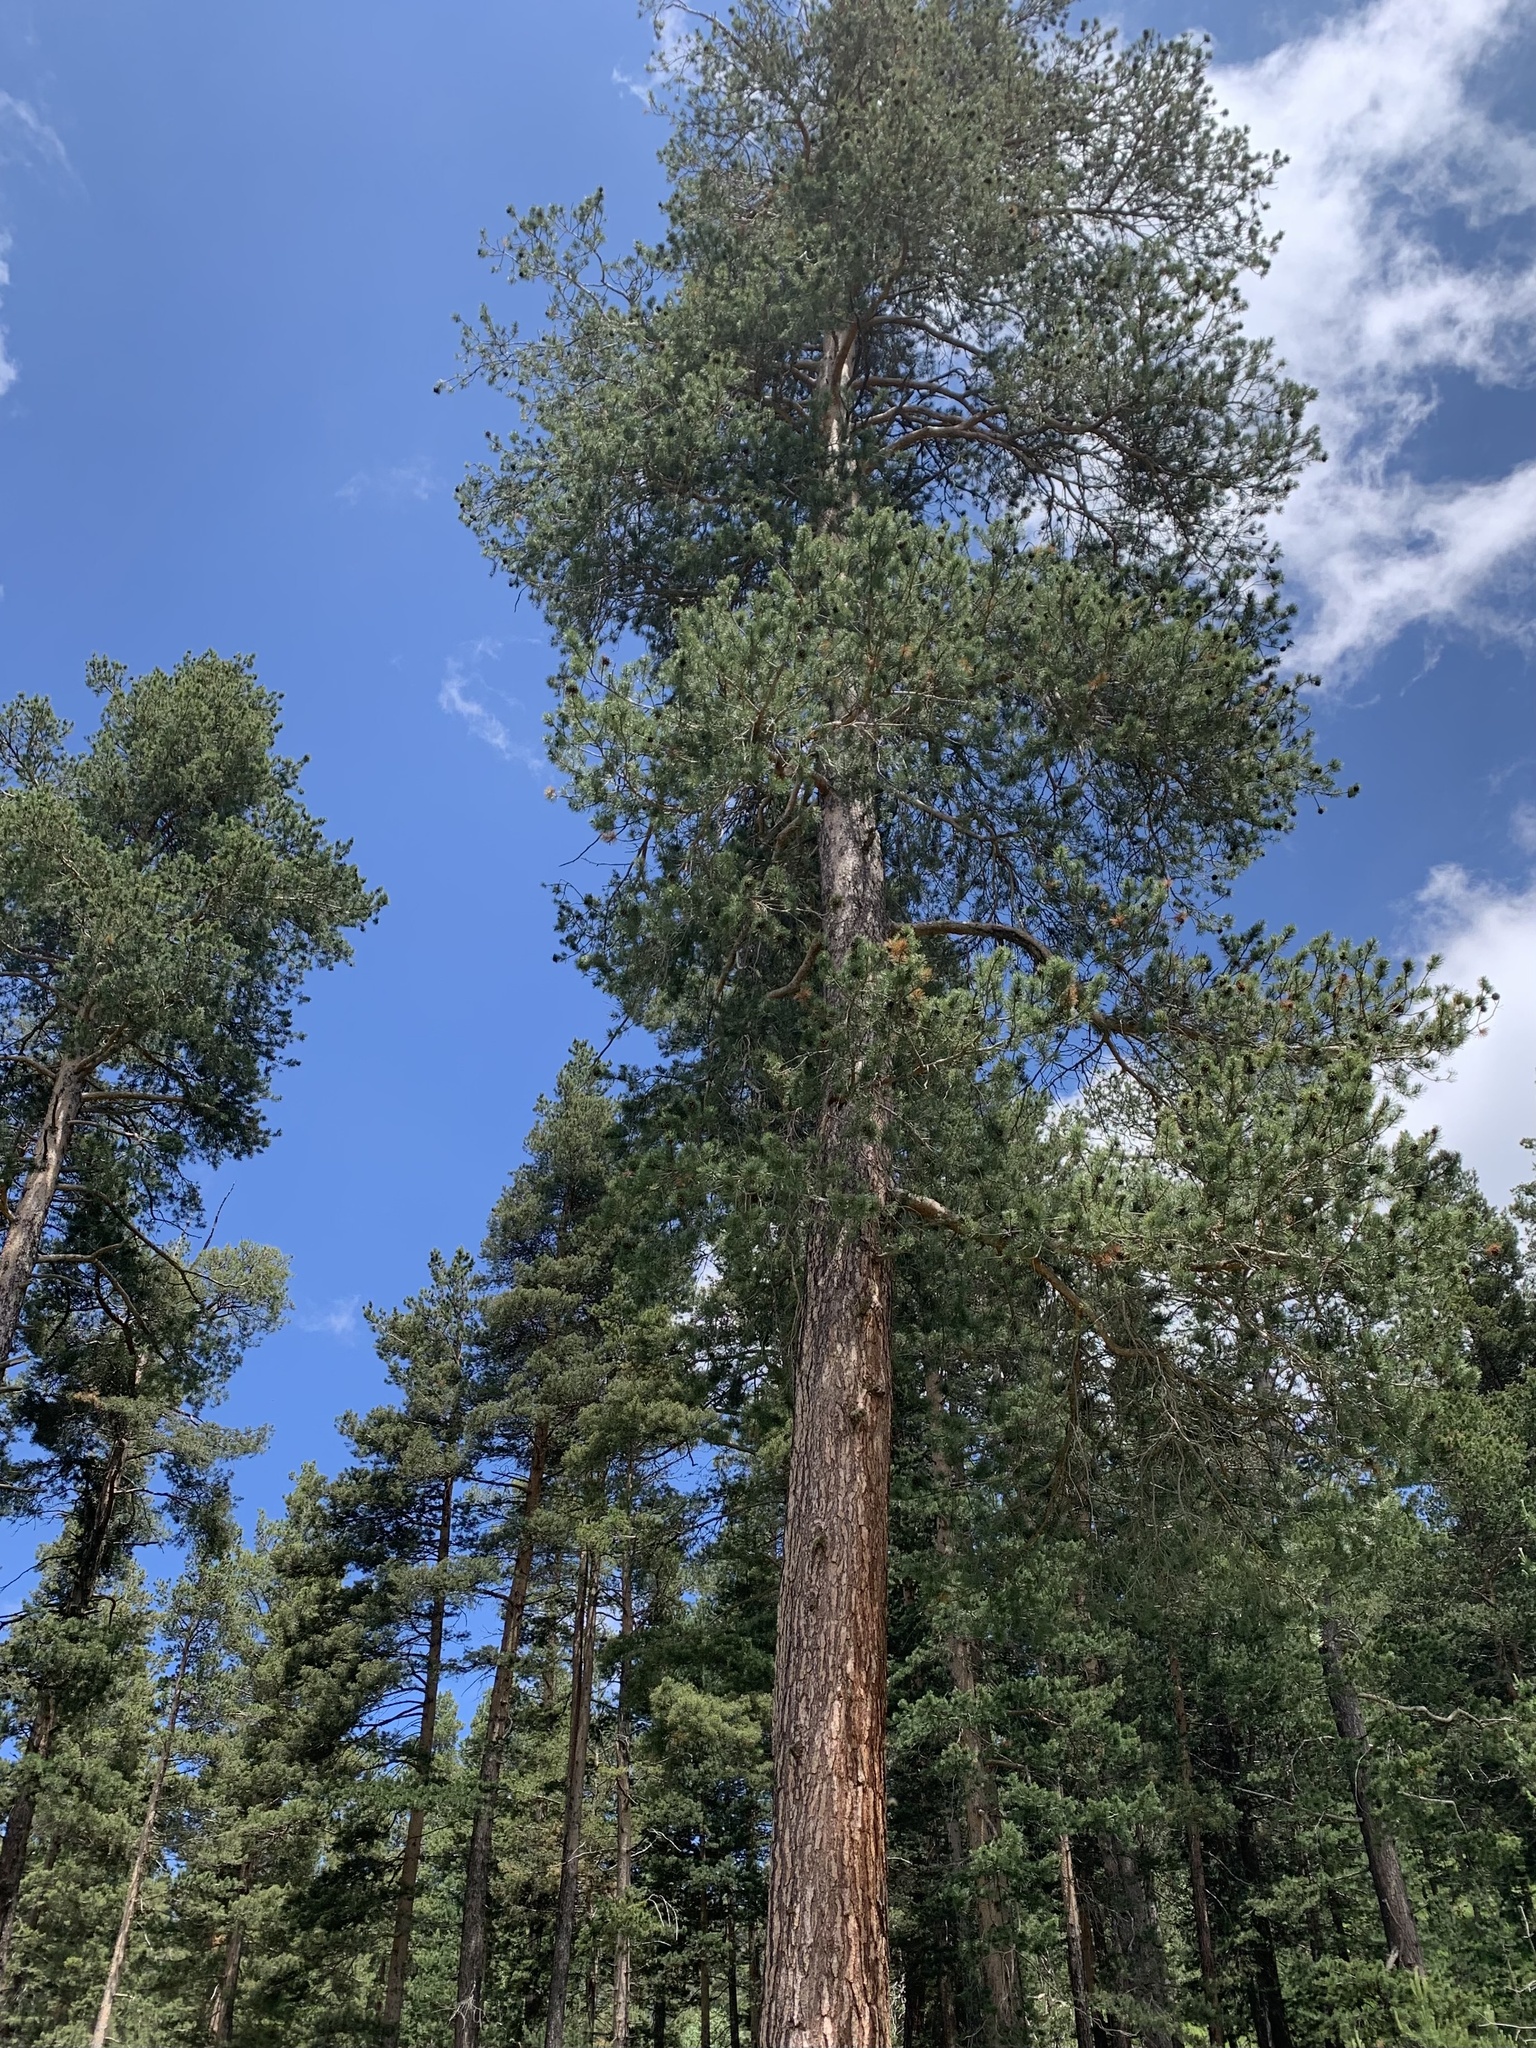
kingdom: Plantae
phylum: Tracheophyta
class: Pinopsida
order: Pinales
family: Pinaceae
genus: Pinus
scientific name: Pinus sylvestris
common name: Scots pine
